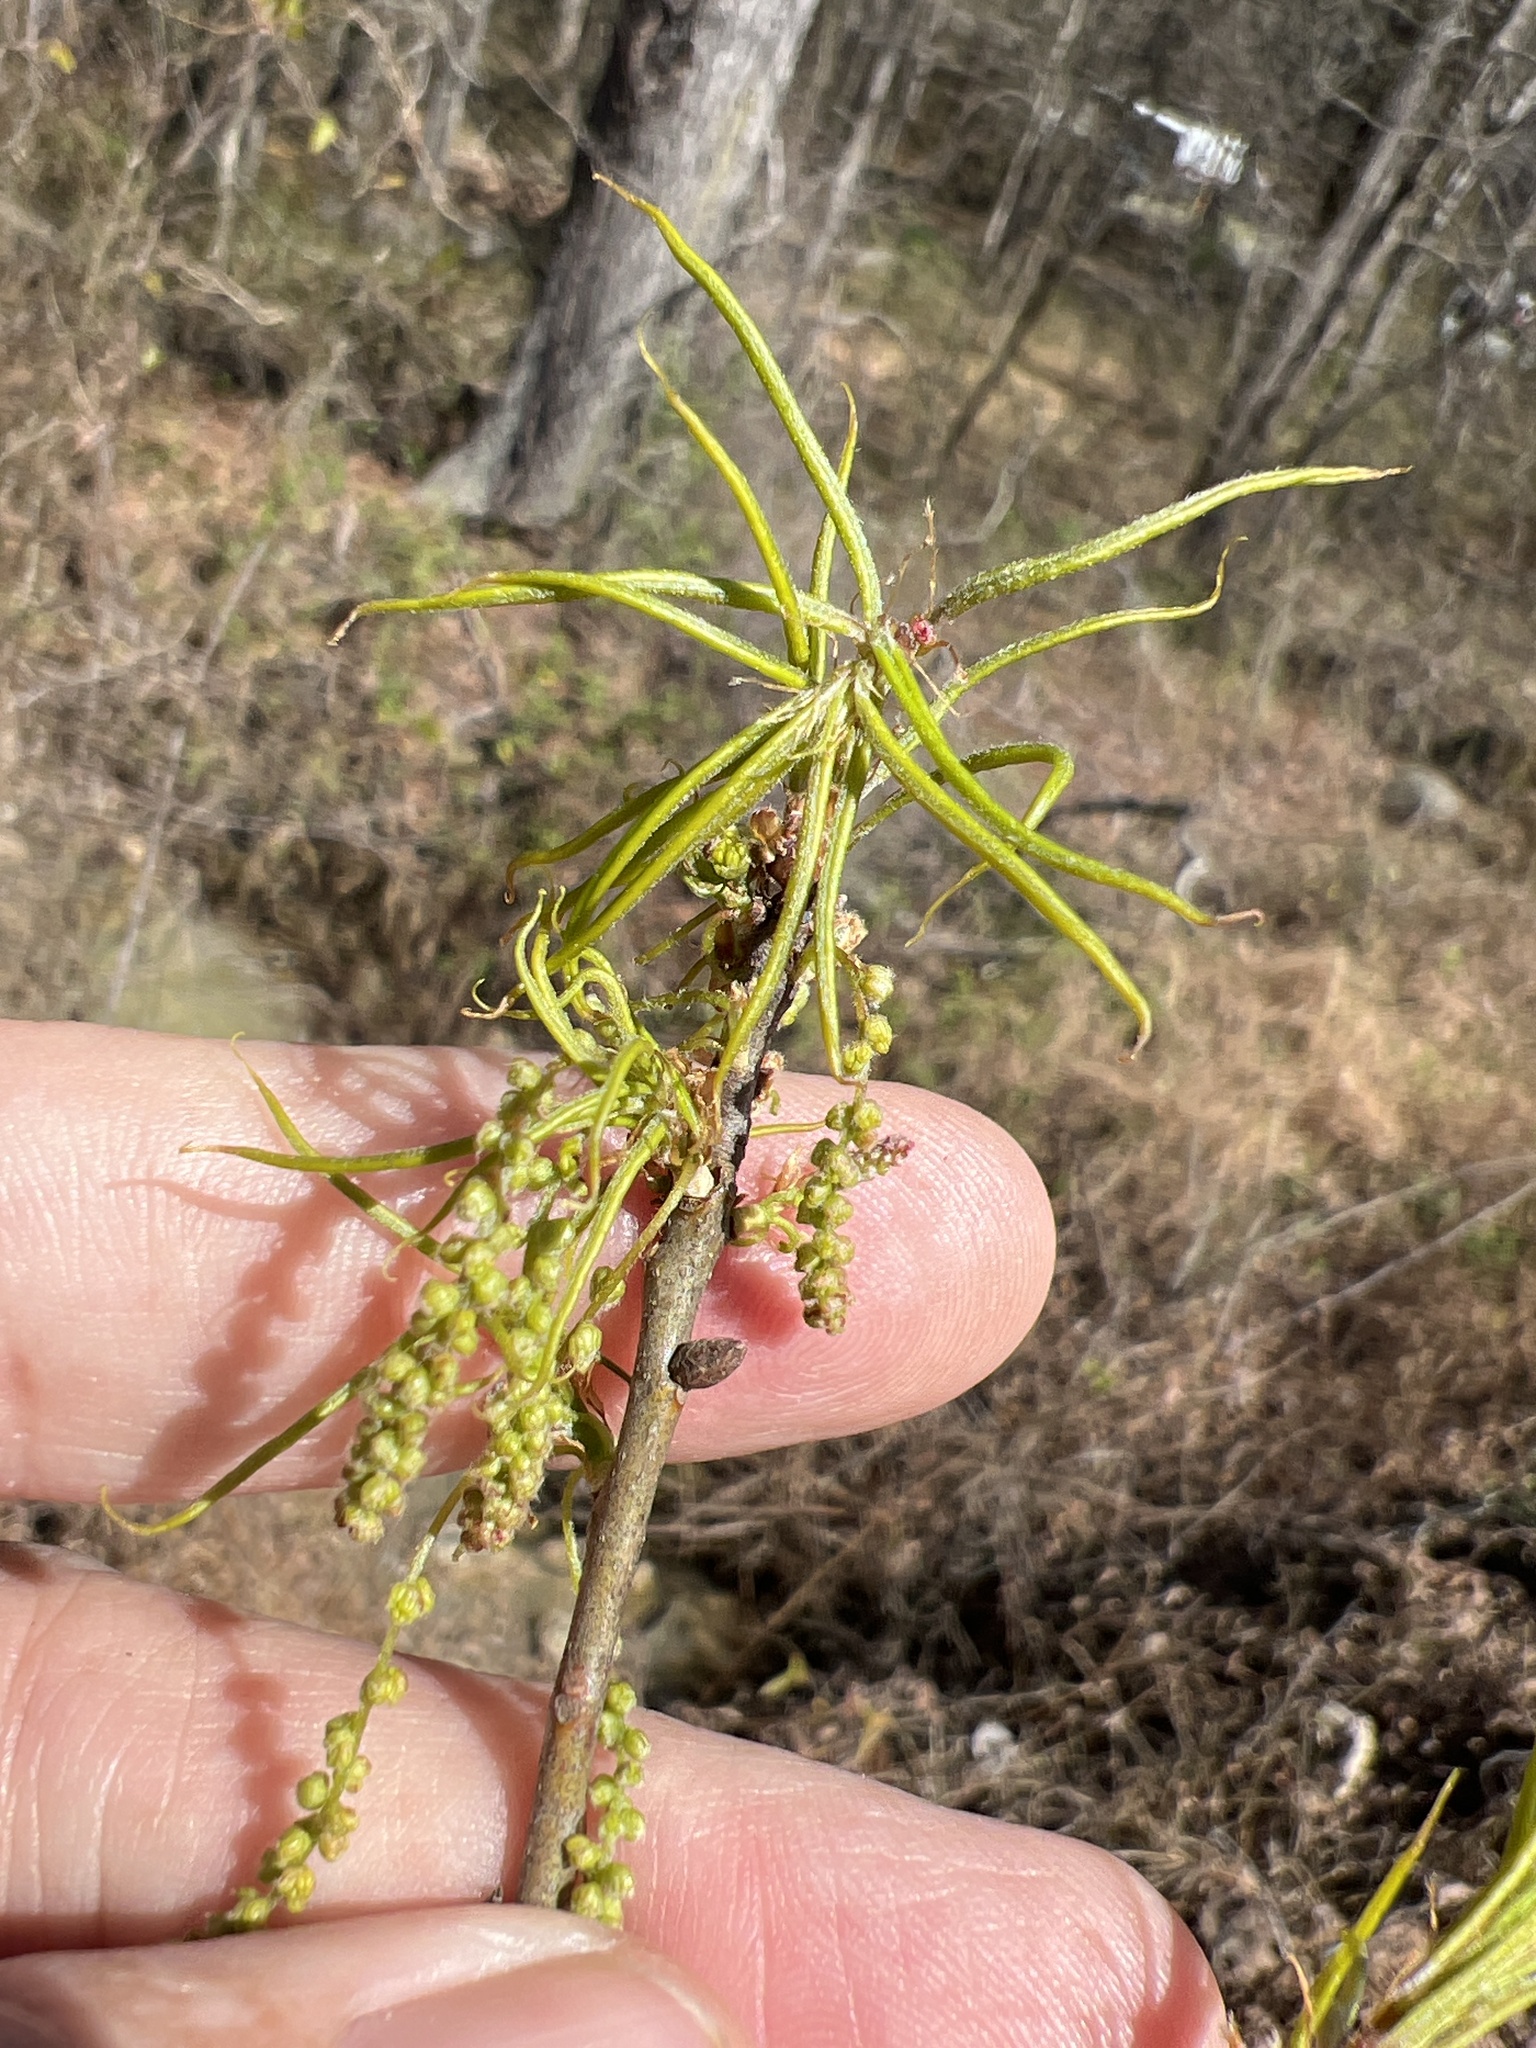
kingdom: Plantae
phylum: Tracheophyta
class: Magnoliopsida
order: Fagales
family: Fagaceae
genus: Quercus
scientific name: Quercus phellos
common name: Willow oak
